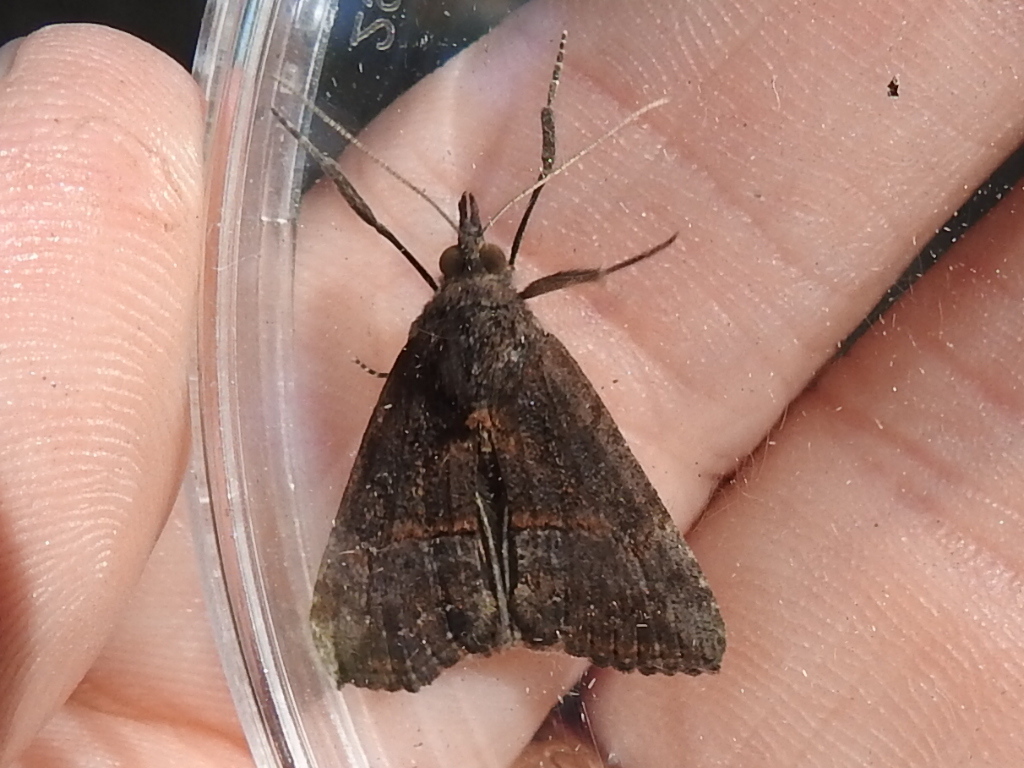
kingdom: Animalia
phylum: Arthropoda
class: Insecta
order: Lepidoptera
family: Erebidae
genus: Hypena
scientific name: Hypena scabra
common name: Green cloverworm
